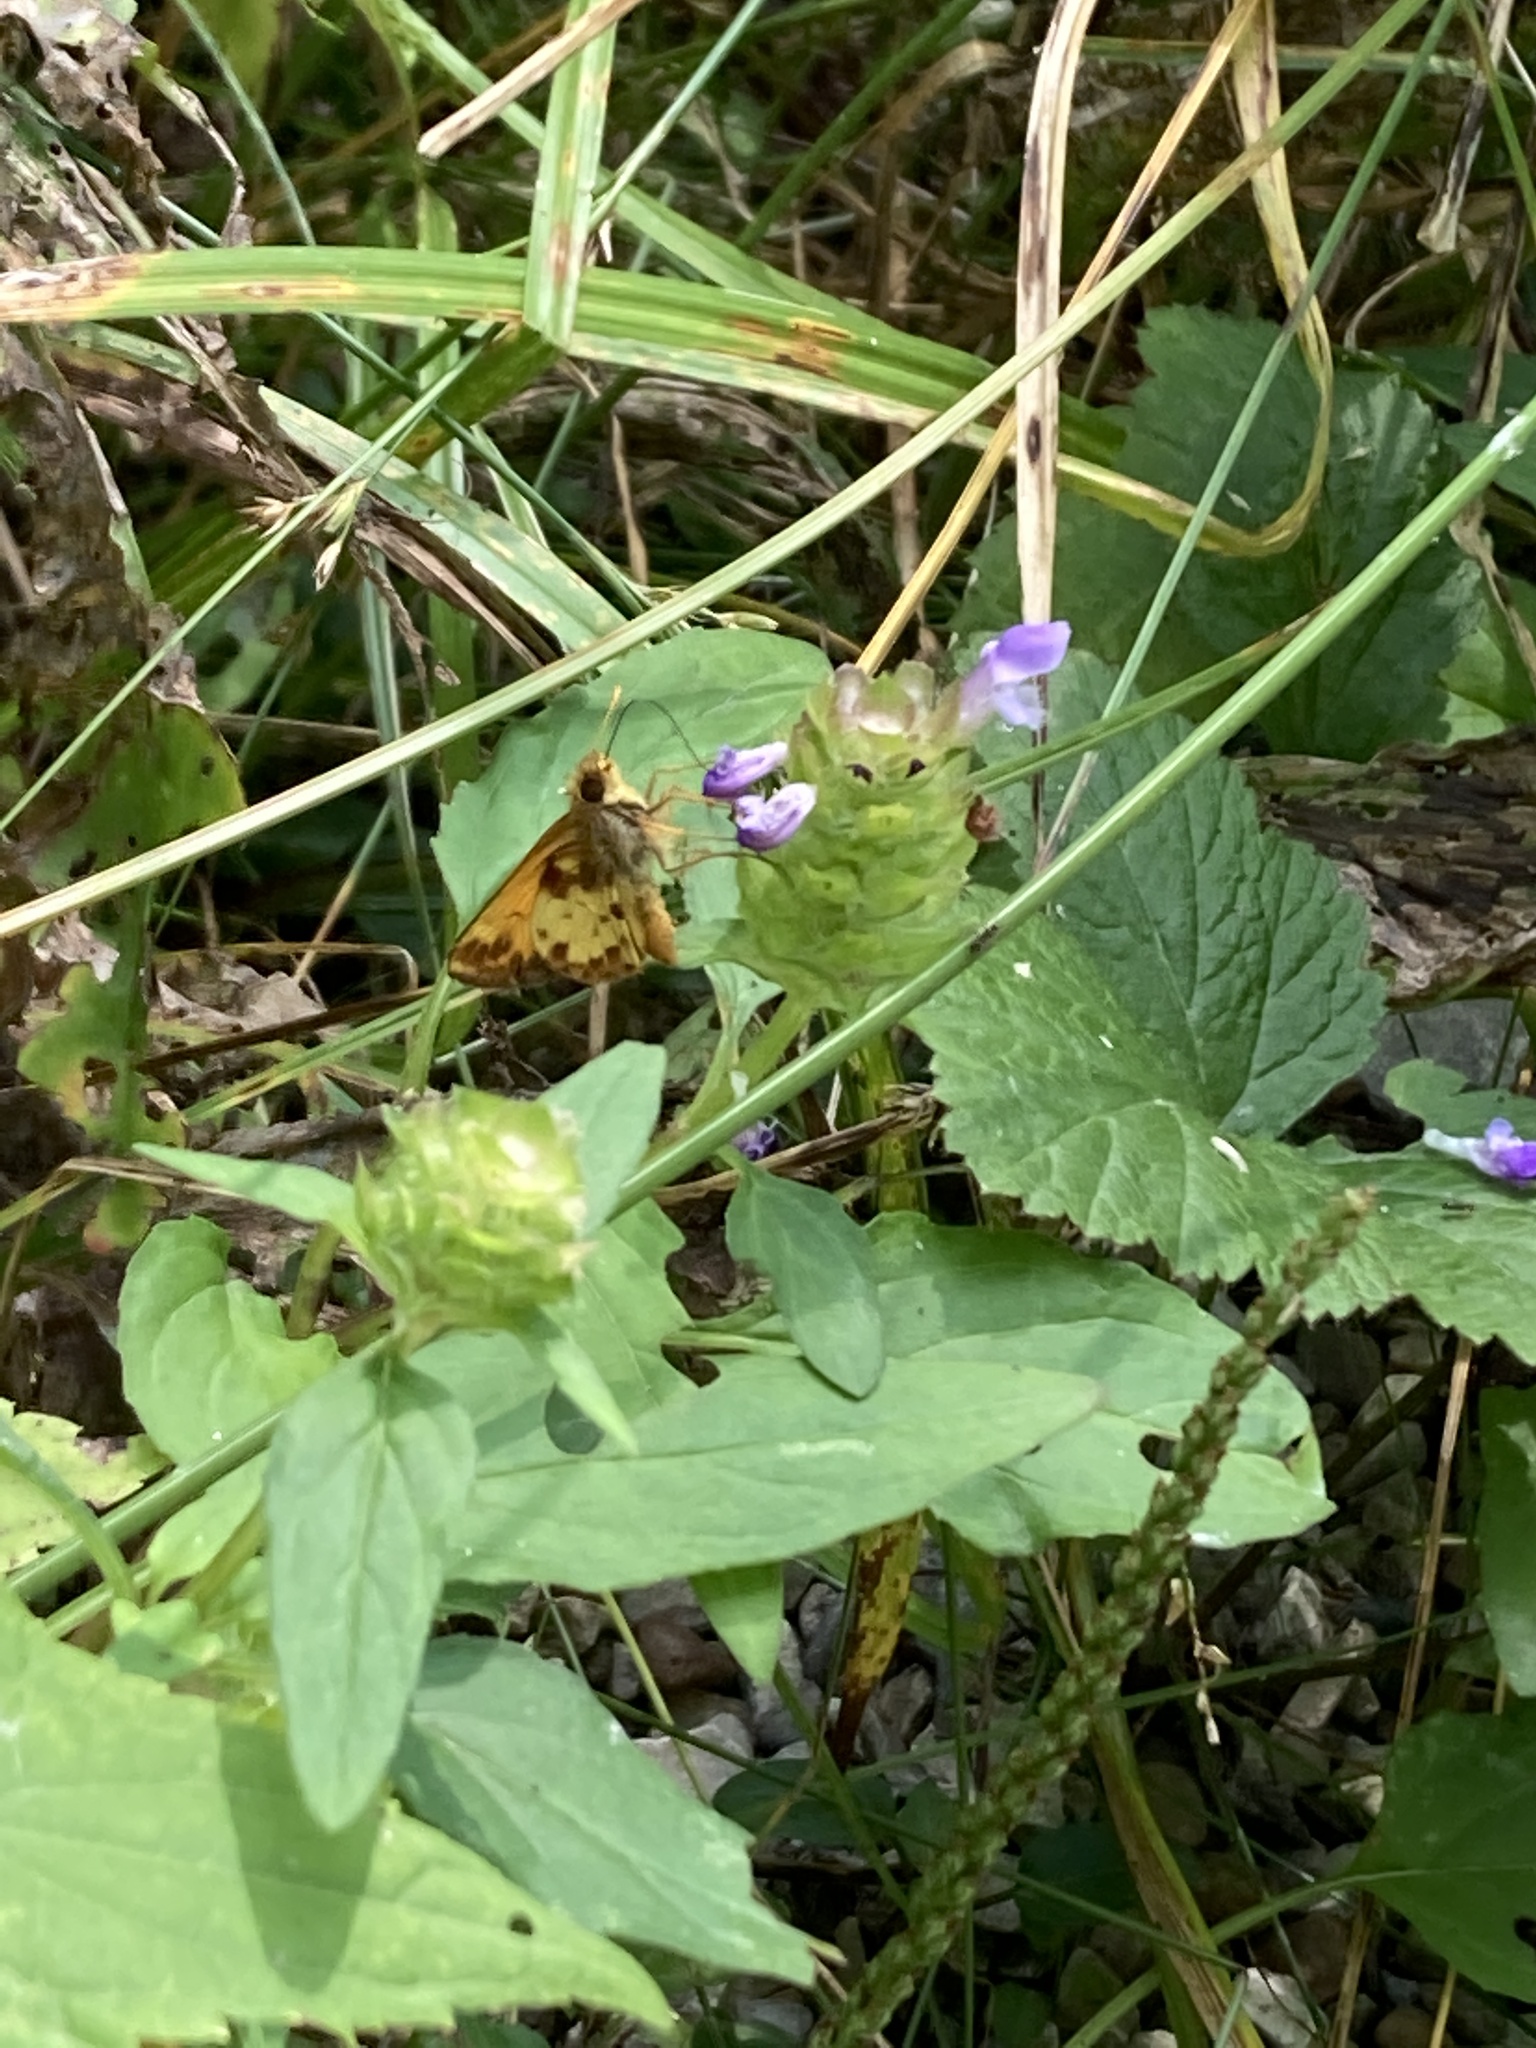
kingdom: Animalia
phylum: Arthropoda
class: Insecta
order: Lepidoptera
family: Hesperiidae
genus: Lon
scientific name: Lon zabulon
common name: Zabulon skipper
